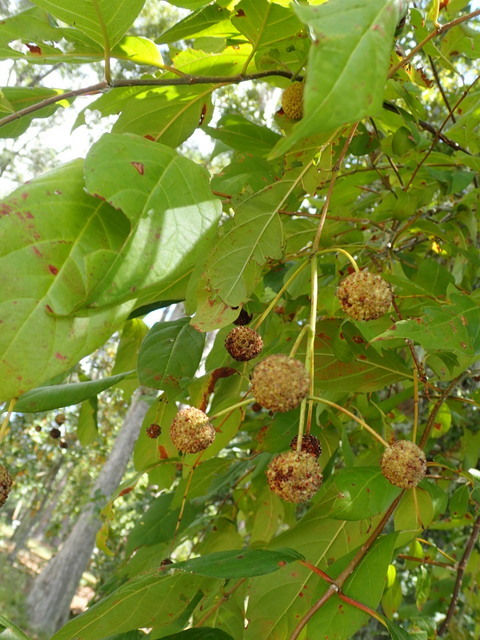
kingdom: Plantae
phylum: Tracheophyta
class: Magnoliopsida
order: Gentianales
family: Rubiaceae
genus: Cephalanthus
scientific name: Cephalanthus occidentalis
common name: Button-willow
